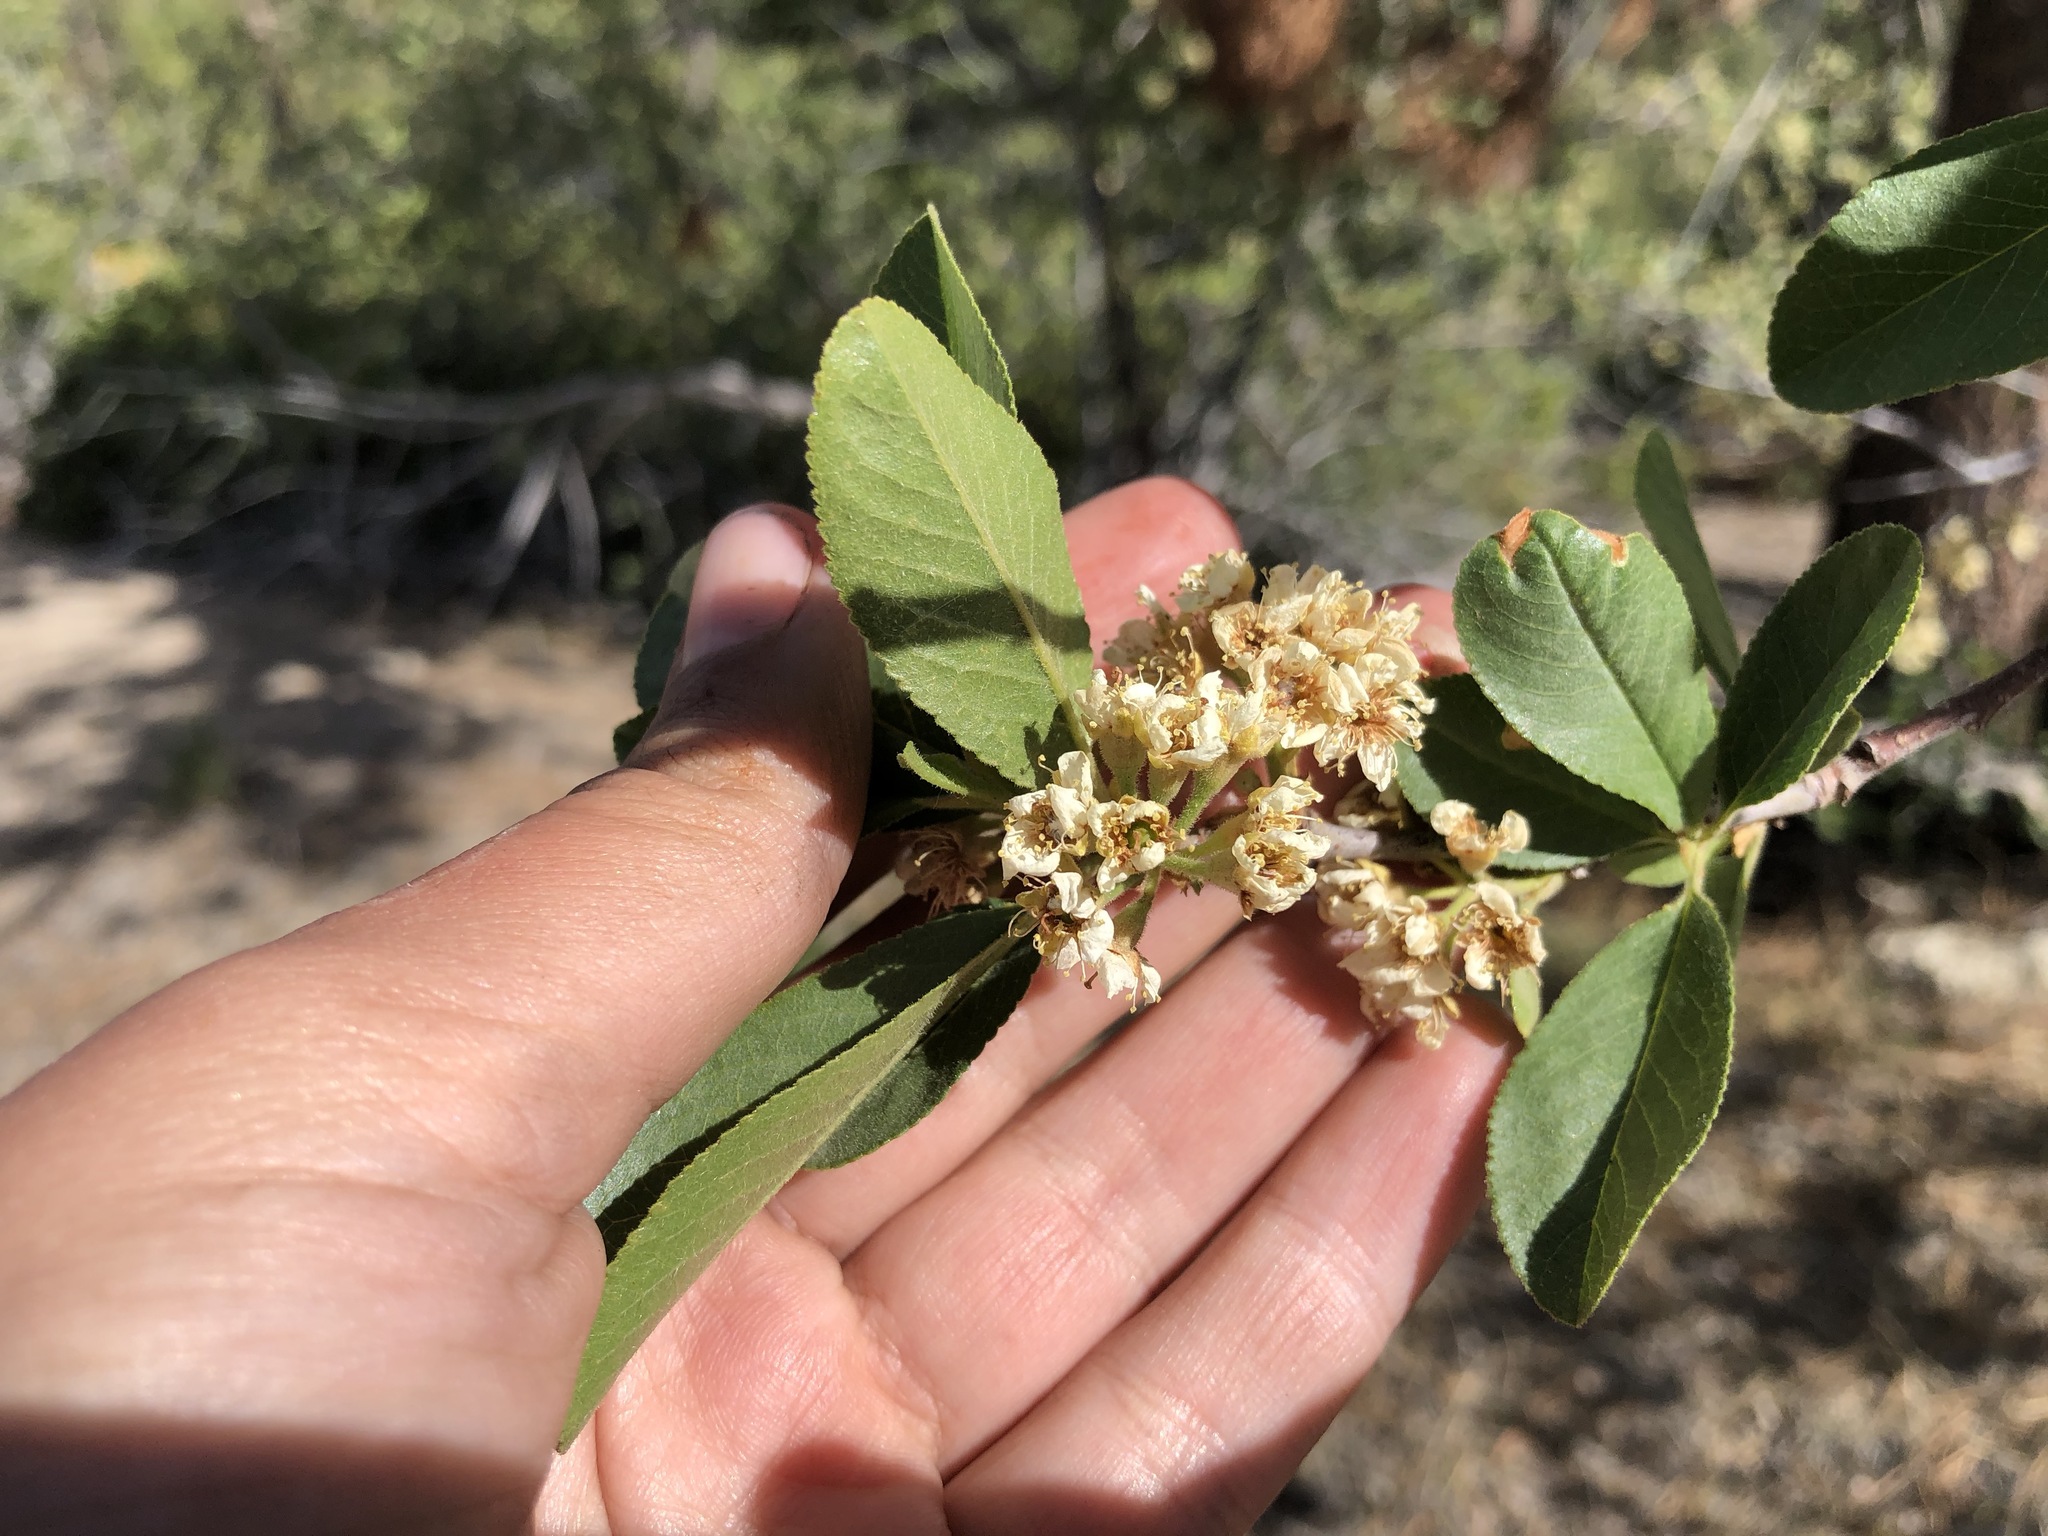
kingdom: Plantae
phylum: Tracheophyta
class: Magnoliopsida
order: Rosales
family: Rosaceae
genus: Prunus
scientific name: Prunus emarginata
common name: Bitter cherry
